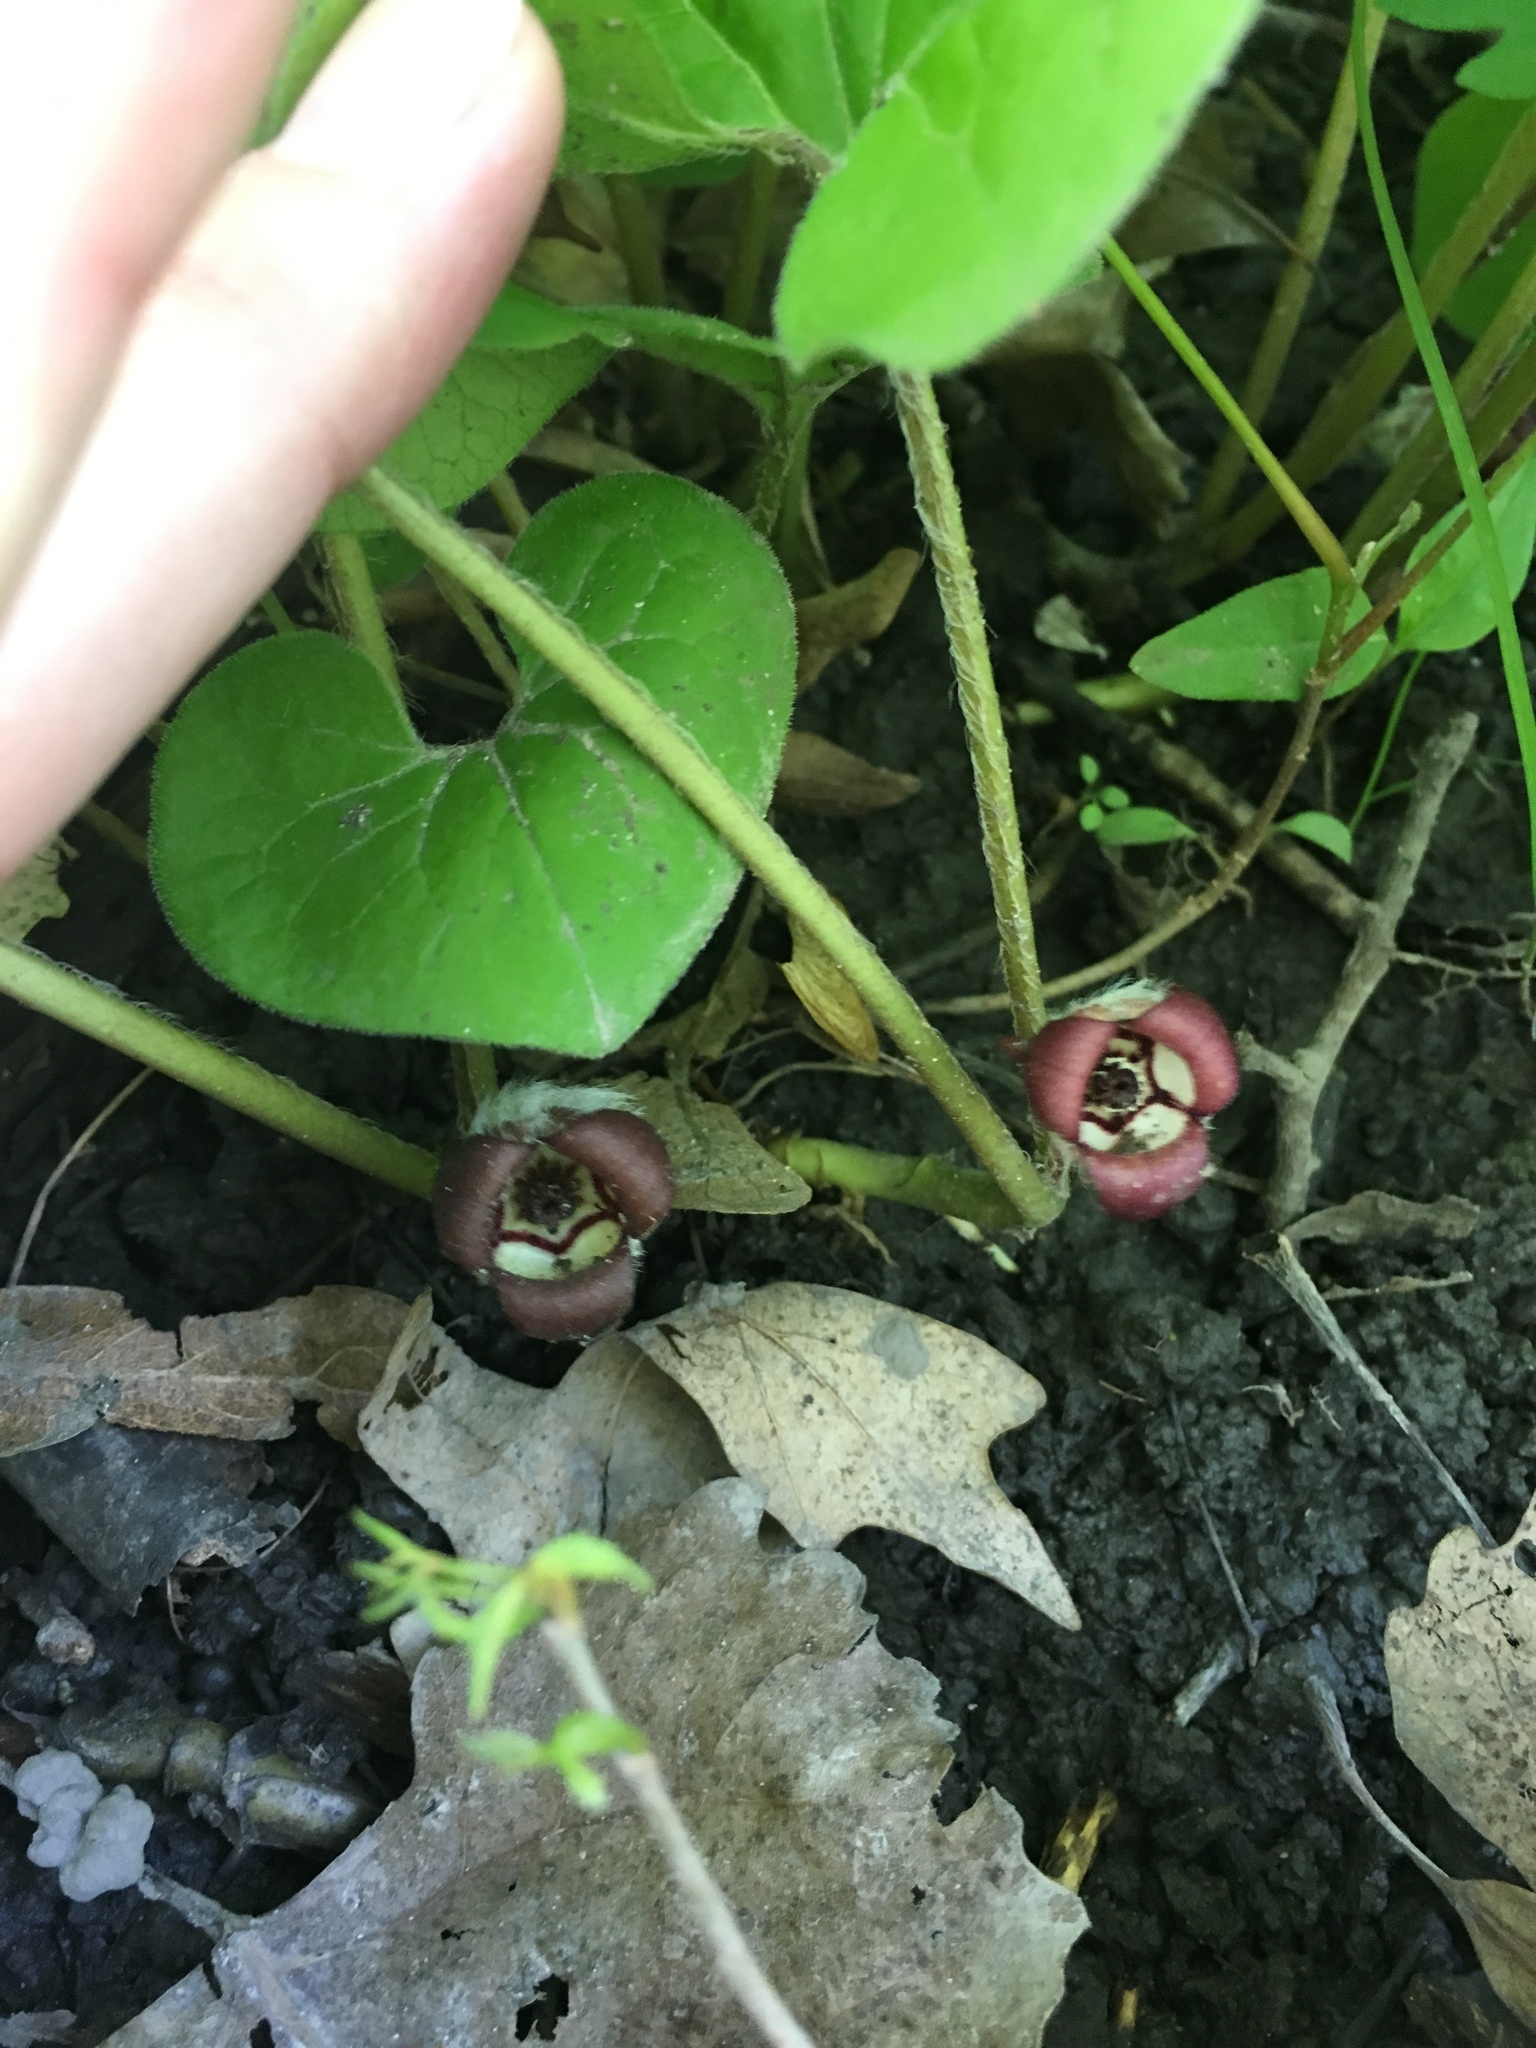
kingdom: Plantae
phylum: Tracheophyta
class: Magnoliopsida
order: Piperales
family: Aristolochiaceae
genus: Asarum
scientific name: Asarum canadense
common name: Wild ginger
